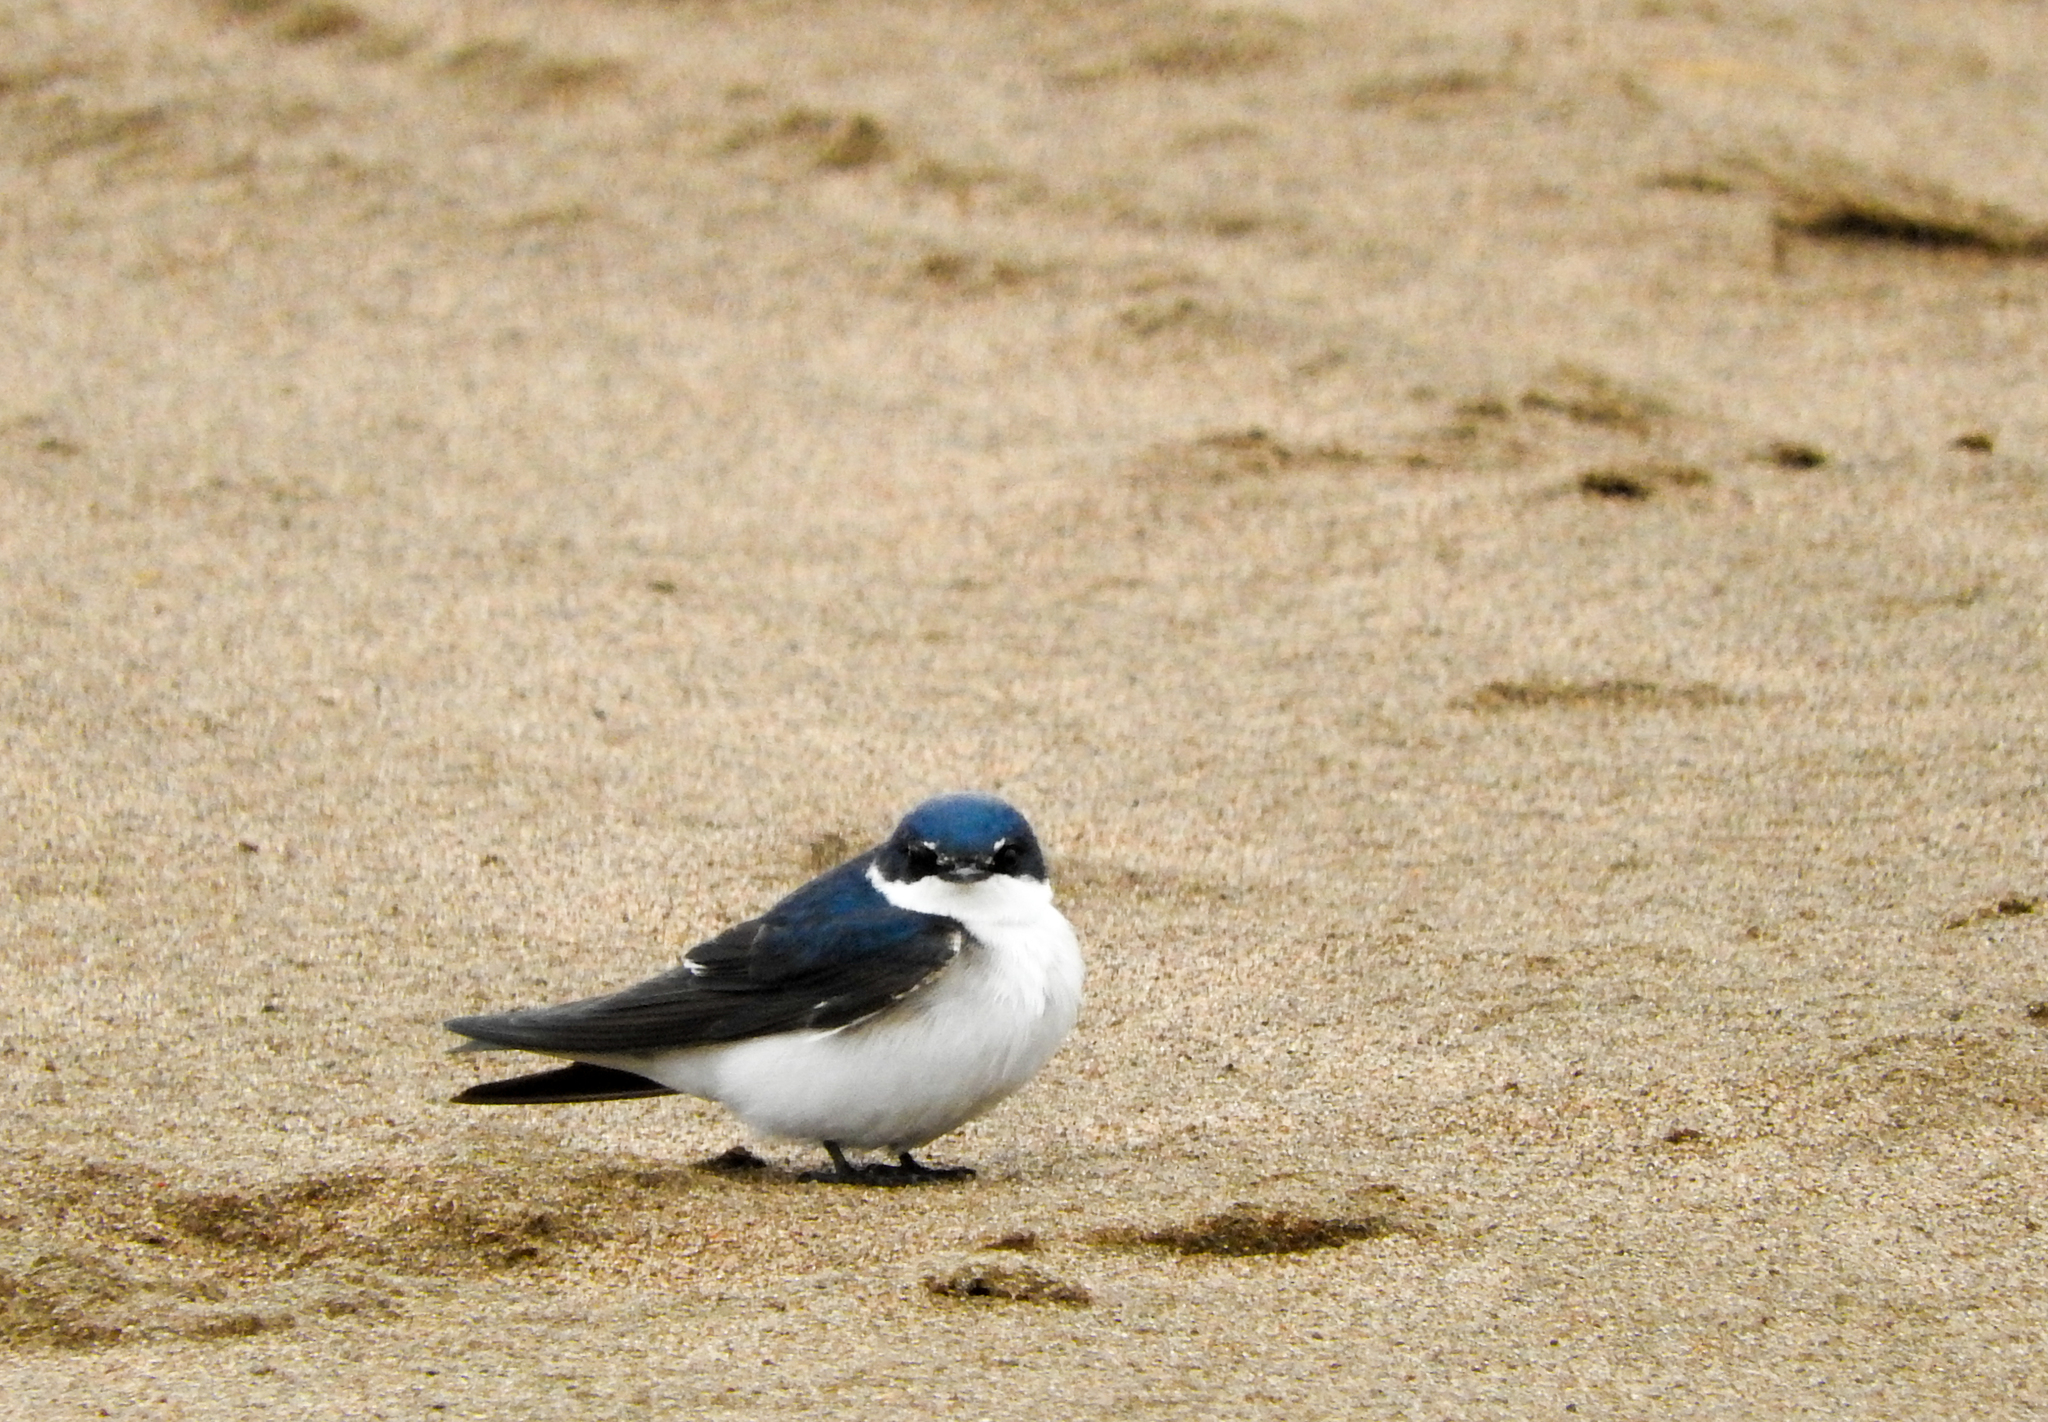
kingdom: Animalia
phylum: Chordata
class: Aves
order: Passeriformes
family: Hirundinidae
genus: Tachycineta
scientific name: Tachycineta leucorrhoa
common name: White-rumped swallow
